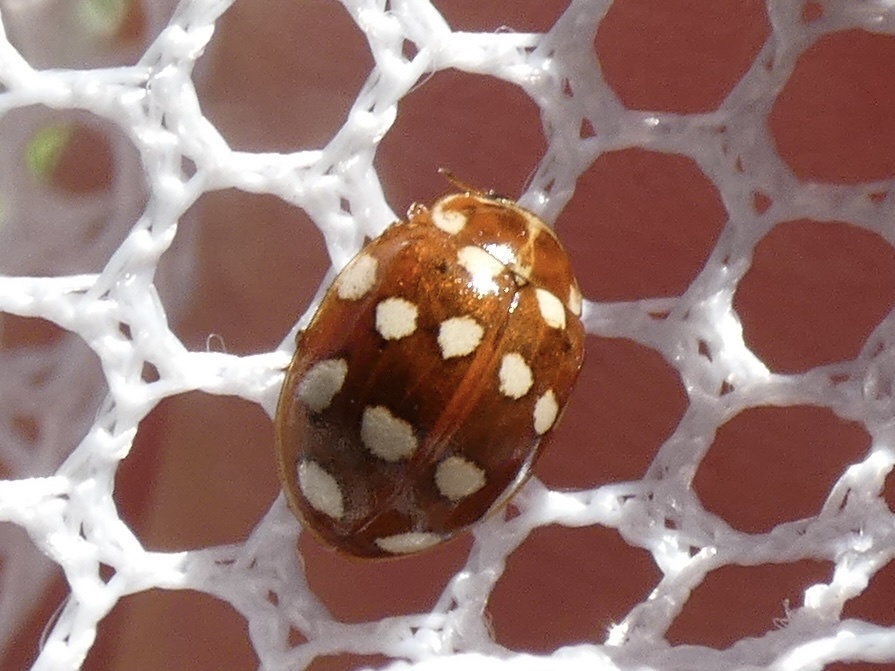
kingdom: Animalia
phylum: Arthropoda
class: Insecta
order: Coleoptera
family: Coccinellidae
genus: Calvia
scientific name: Calvia quatuordecimguttata
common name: Cream-spot ladybird
